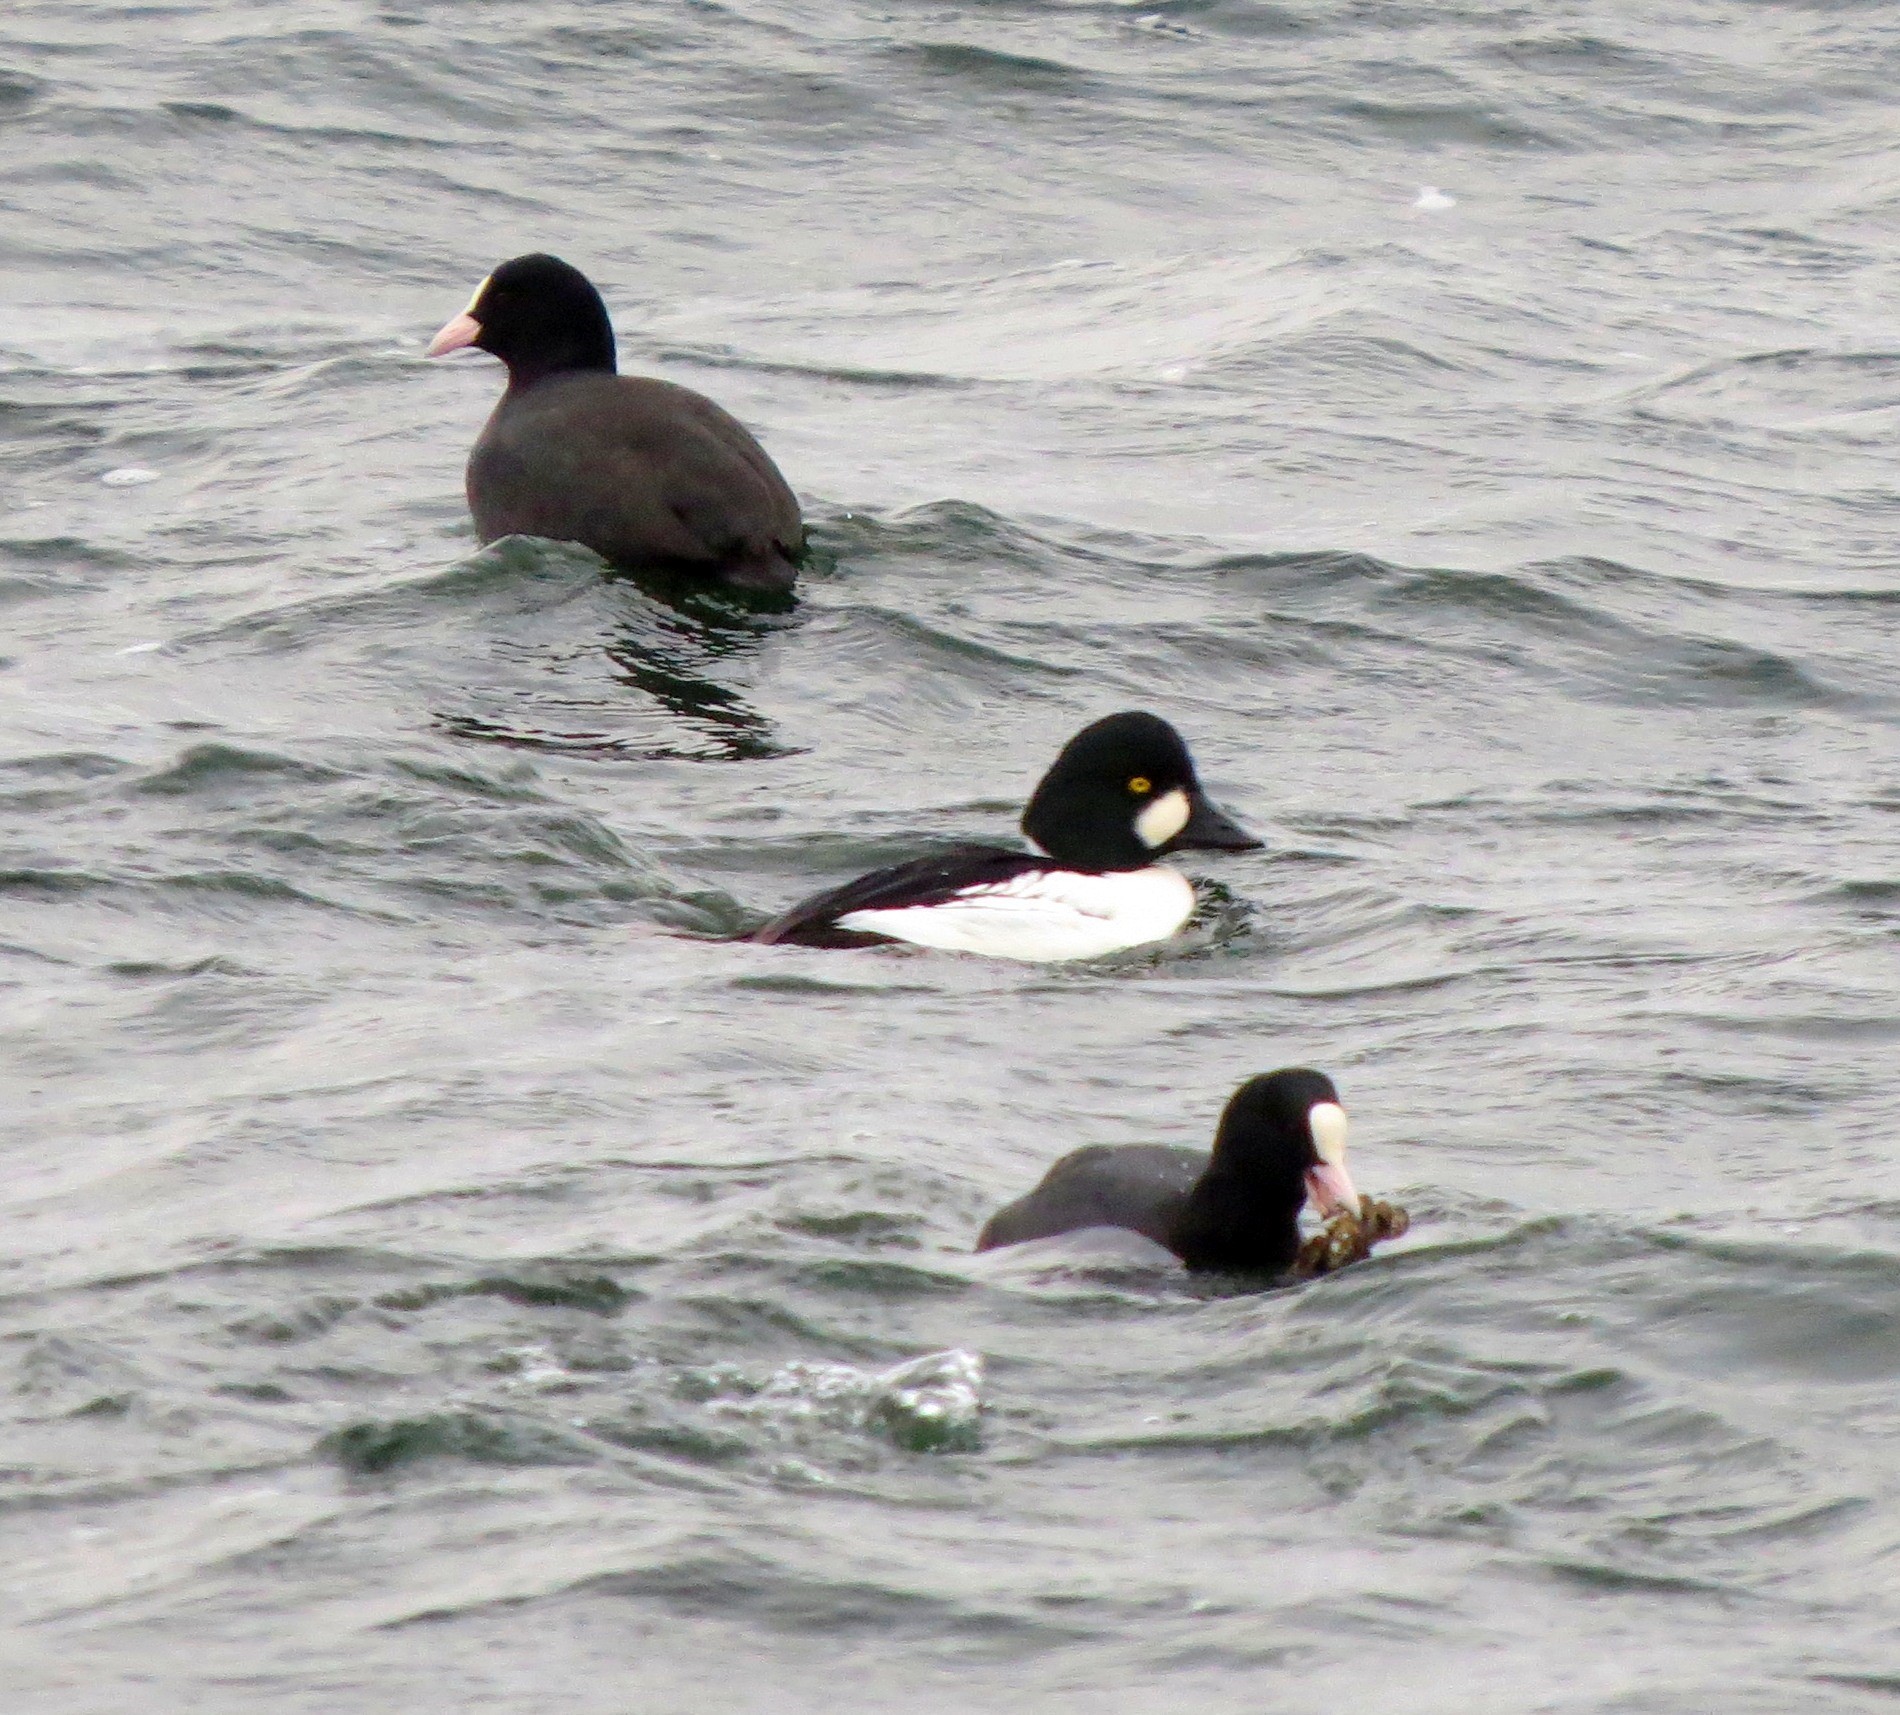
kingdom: Animalia
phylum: Chordata
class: Aves
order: Anseriformes
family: Anatidae
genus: Bucephala
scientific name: Bucephala clangula
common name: Common goldeneye
